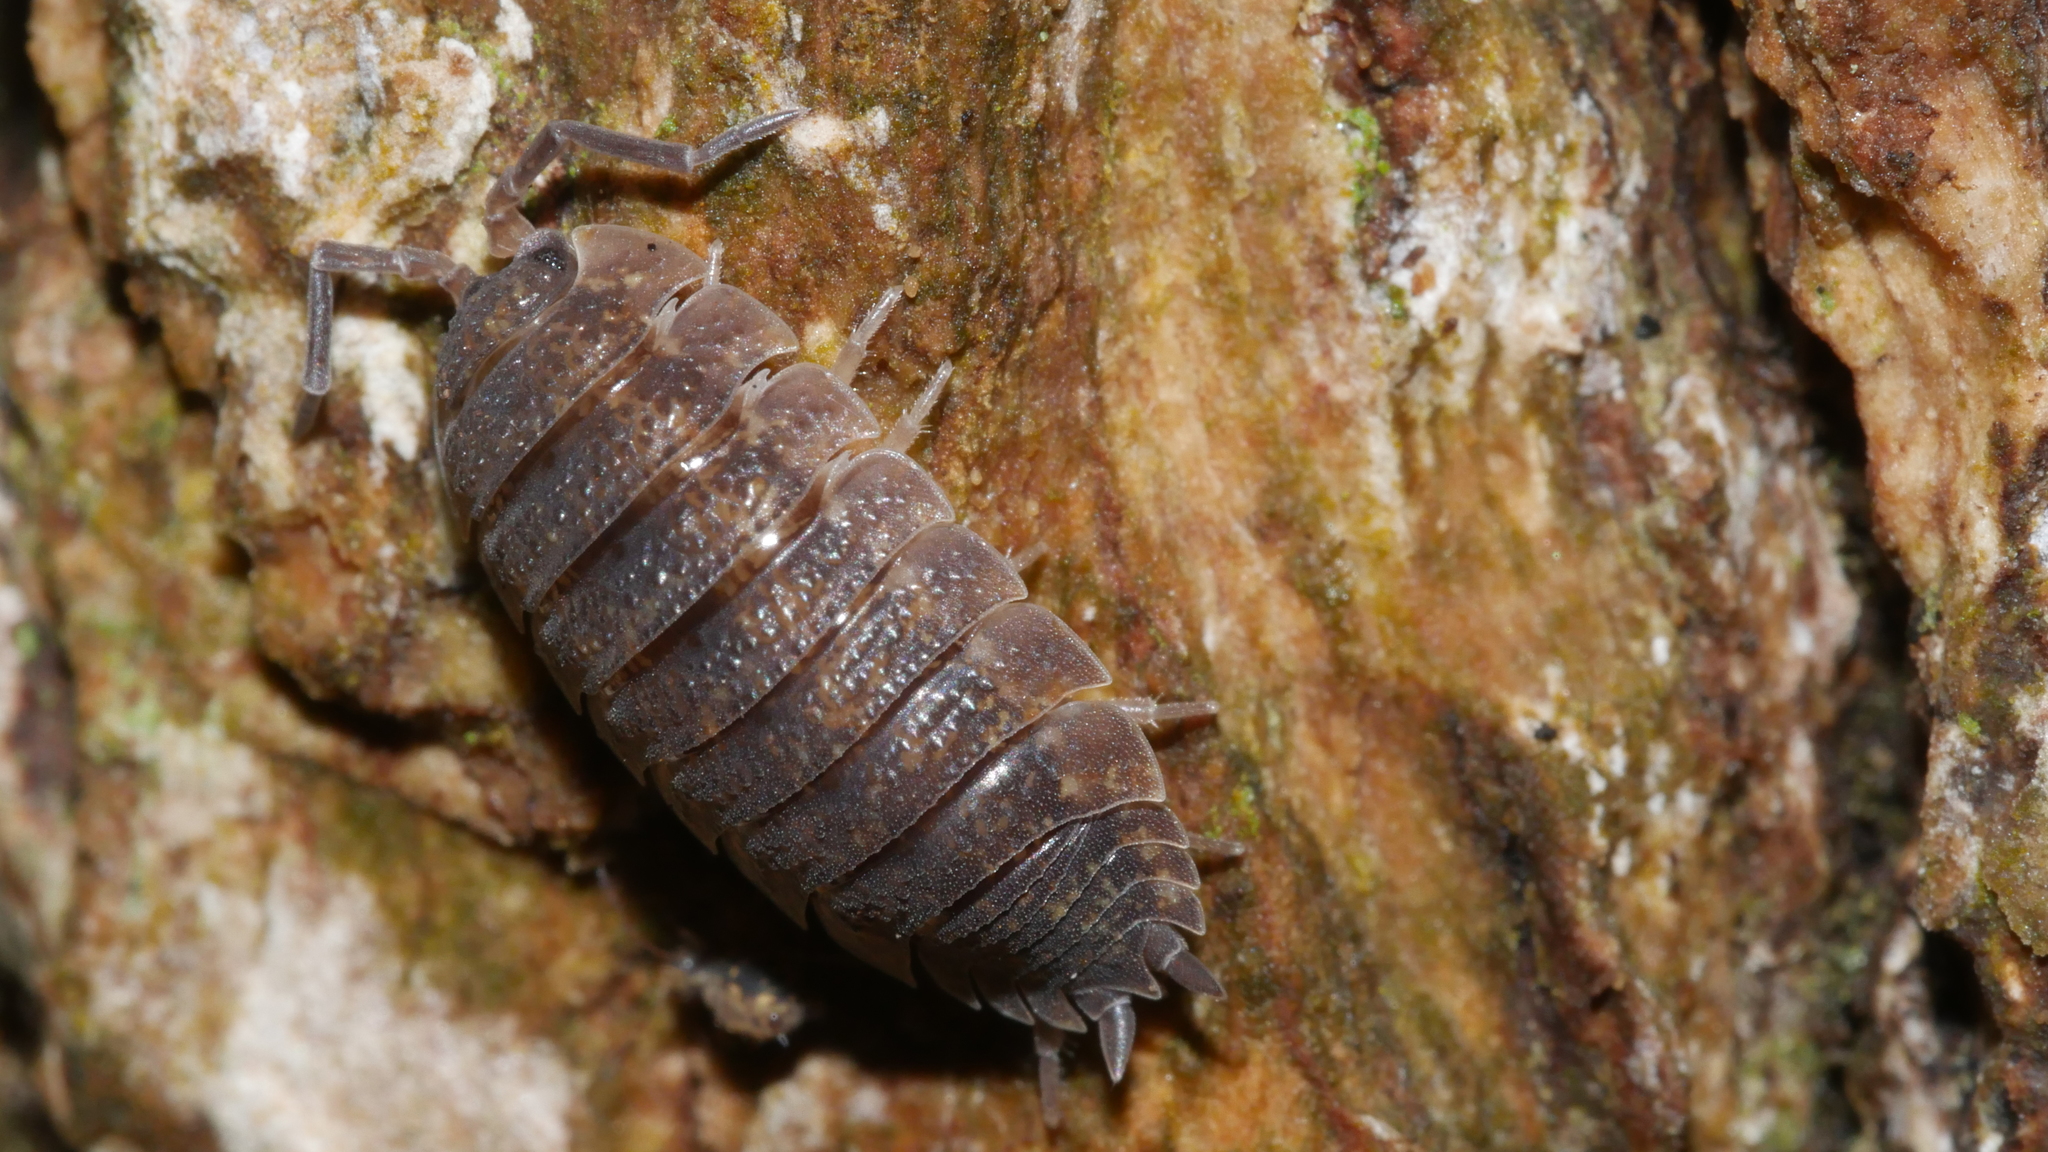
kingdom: Animalia
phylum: Arthropoda
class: Malacostraca
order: Isopoda
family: Porcellionidae
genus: Porcellio
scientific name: Porcellio scaber
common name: Common rough woodlouse
